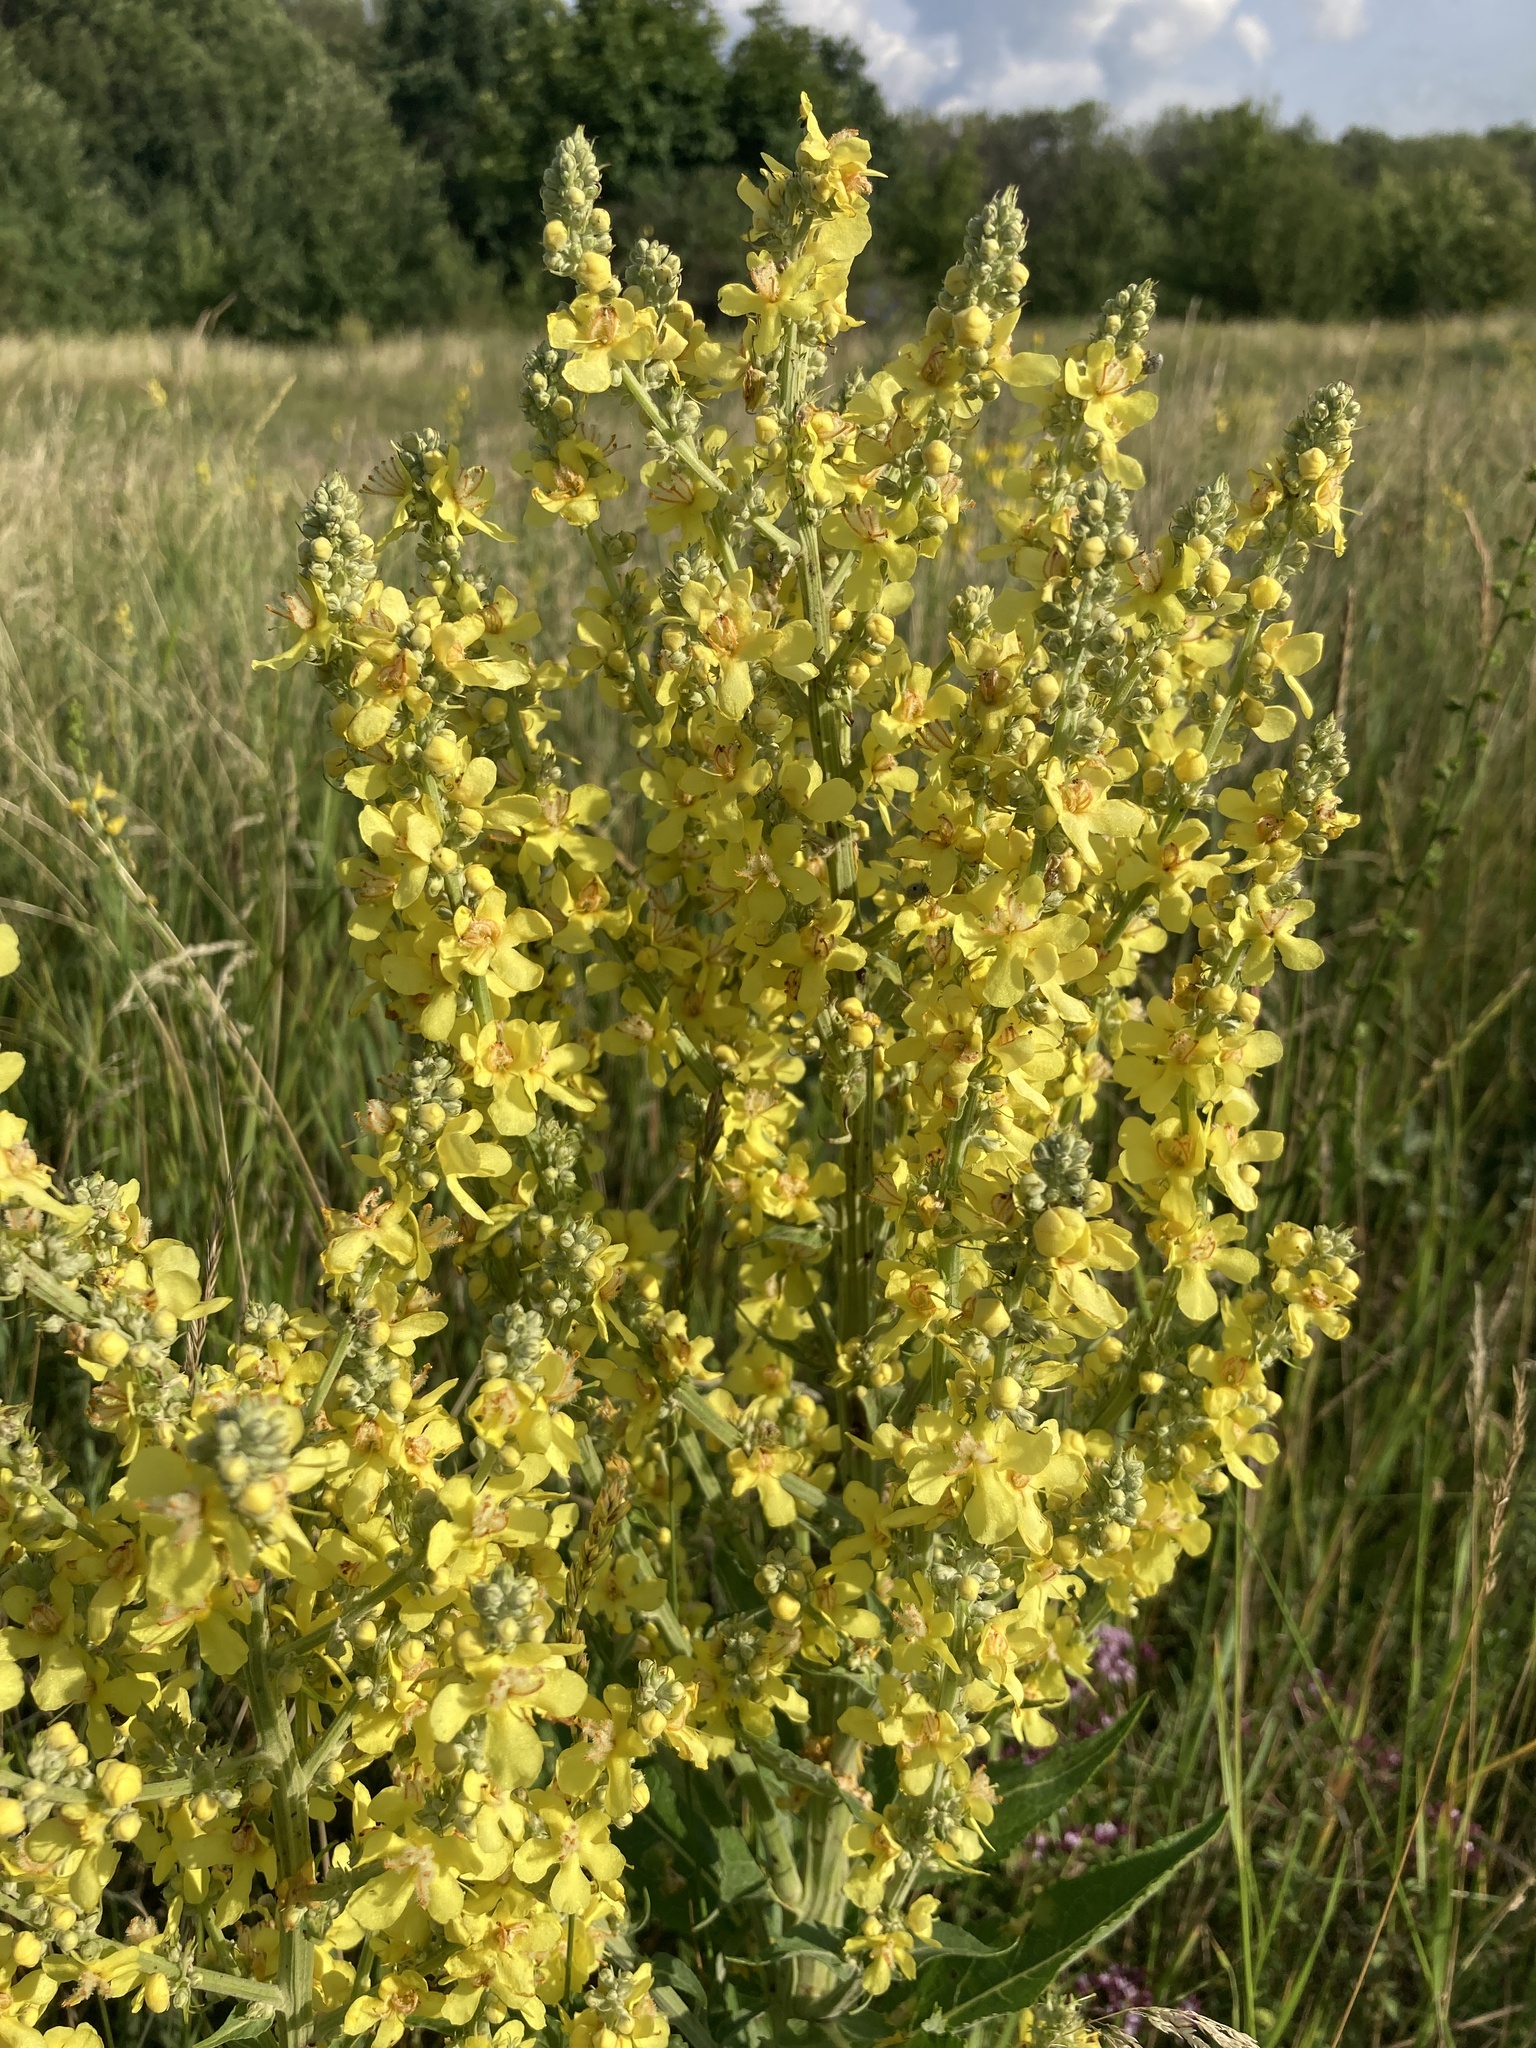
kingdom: Plantae
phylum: Tracheophyta
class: Magnoliopsida
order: Lamiales
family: Scrophulariaceae
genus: Verbascum
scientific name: Verbascum lychnitis
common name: White mullein
